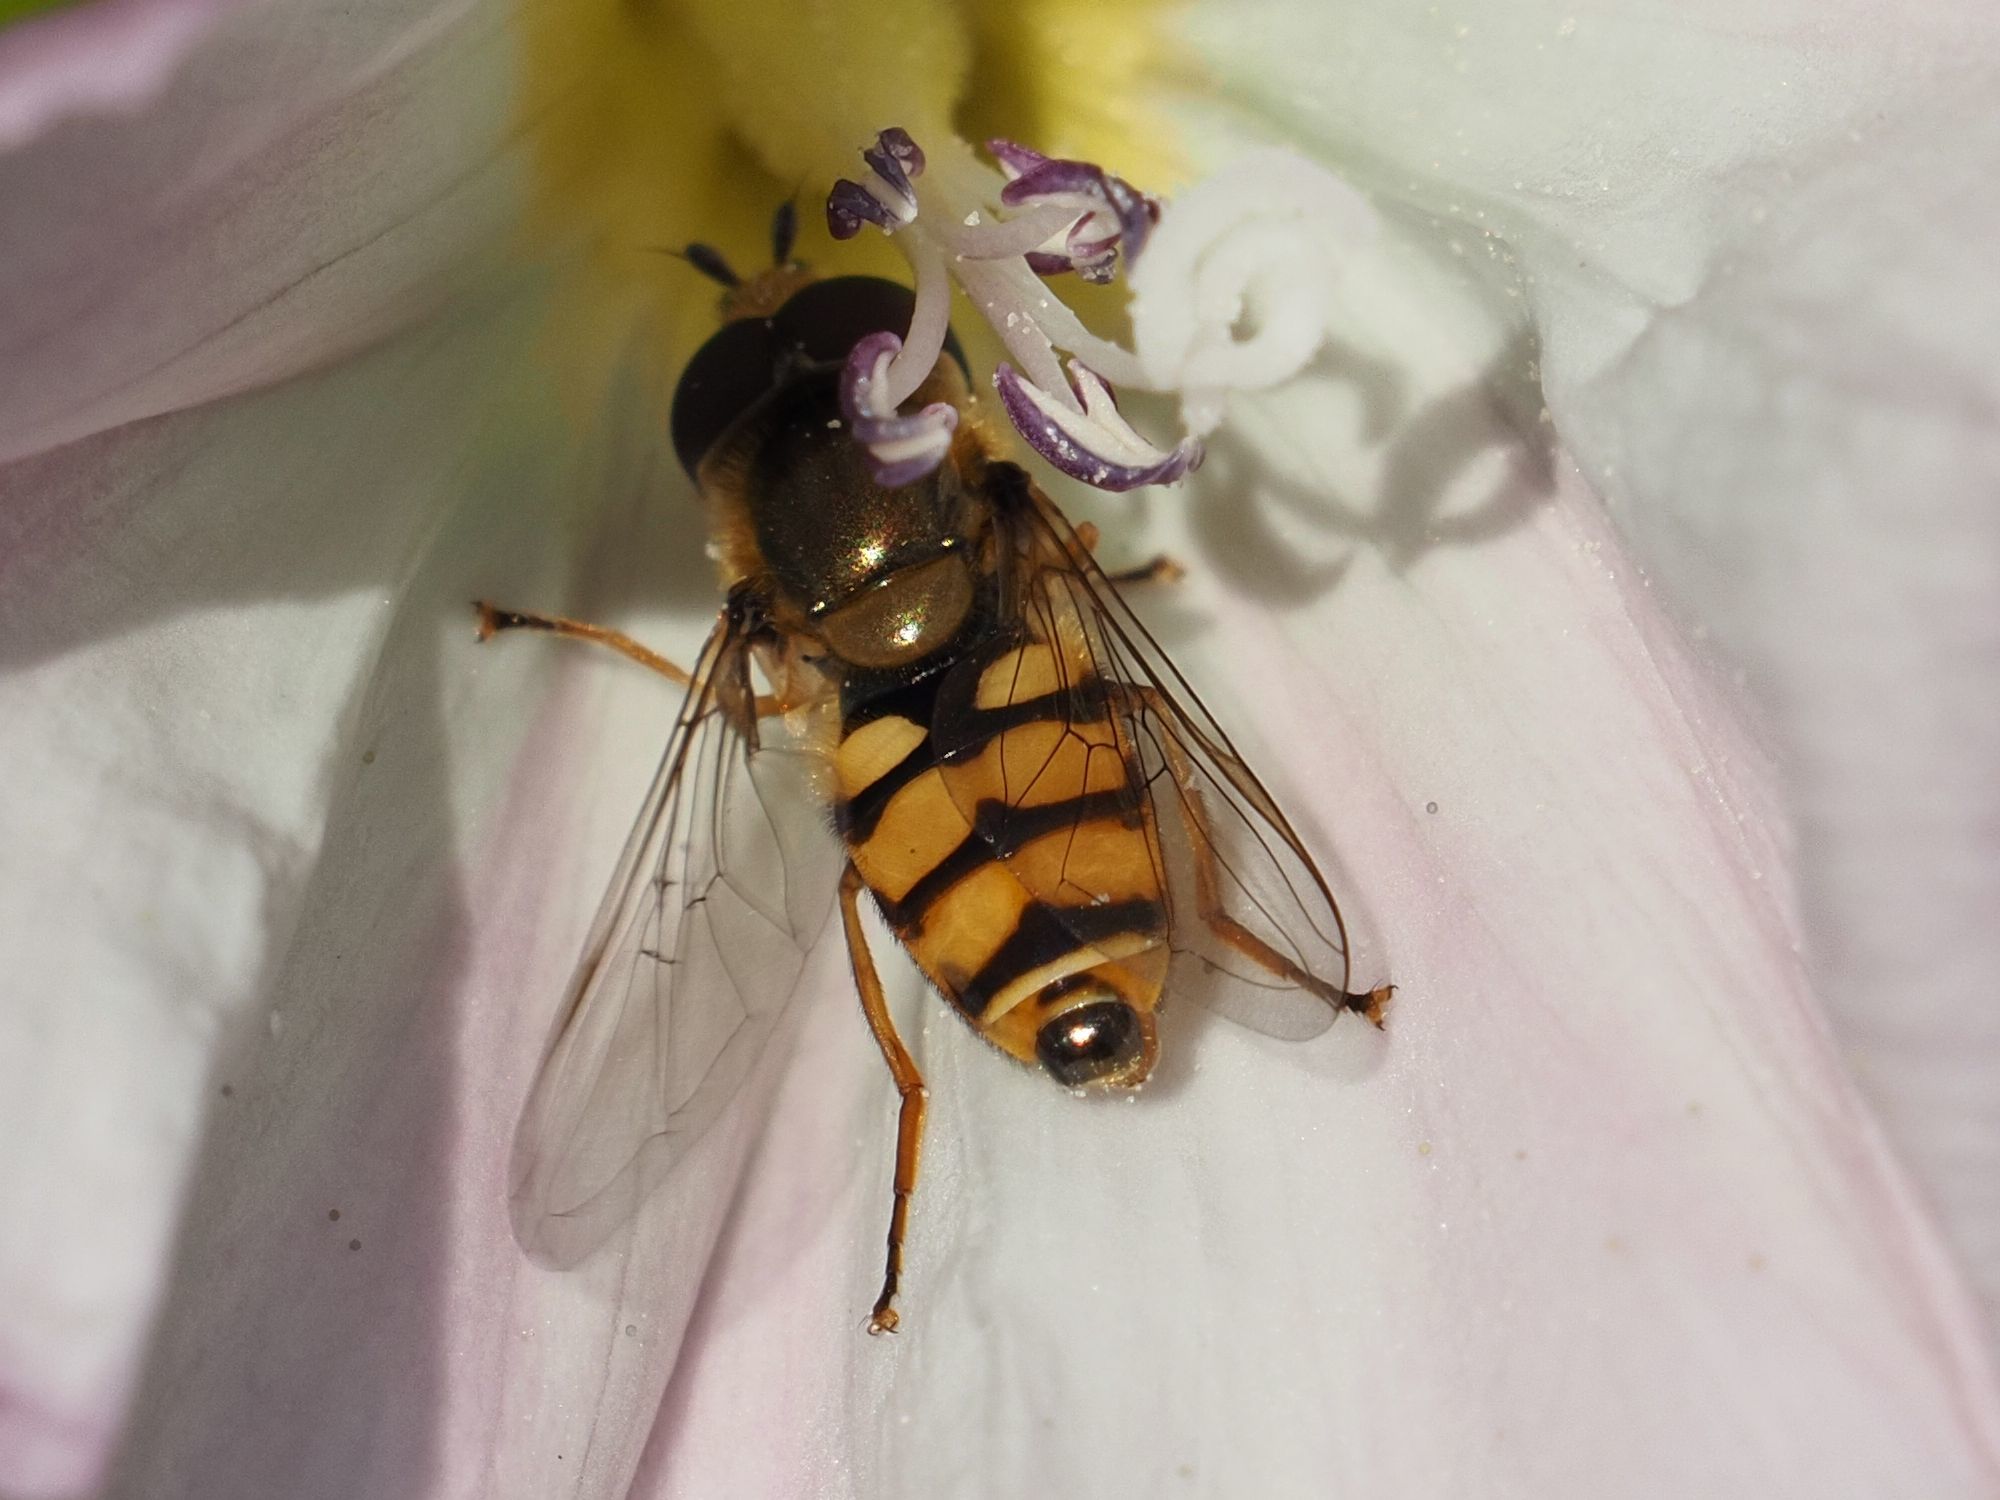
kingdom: Animalia
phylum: Arthropoda
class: Insecta
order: Diptera
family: Syrphidae
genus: Eupeodes
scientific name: Eupeodes corollae
